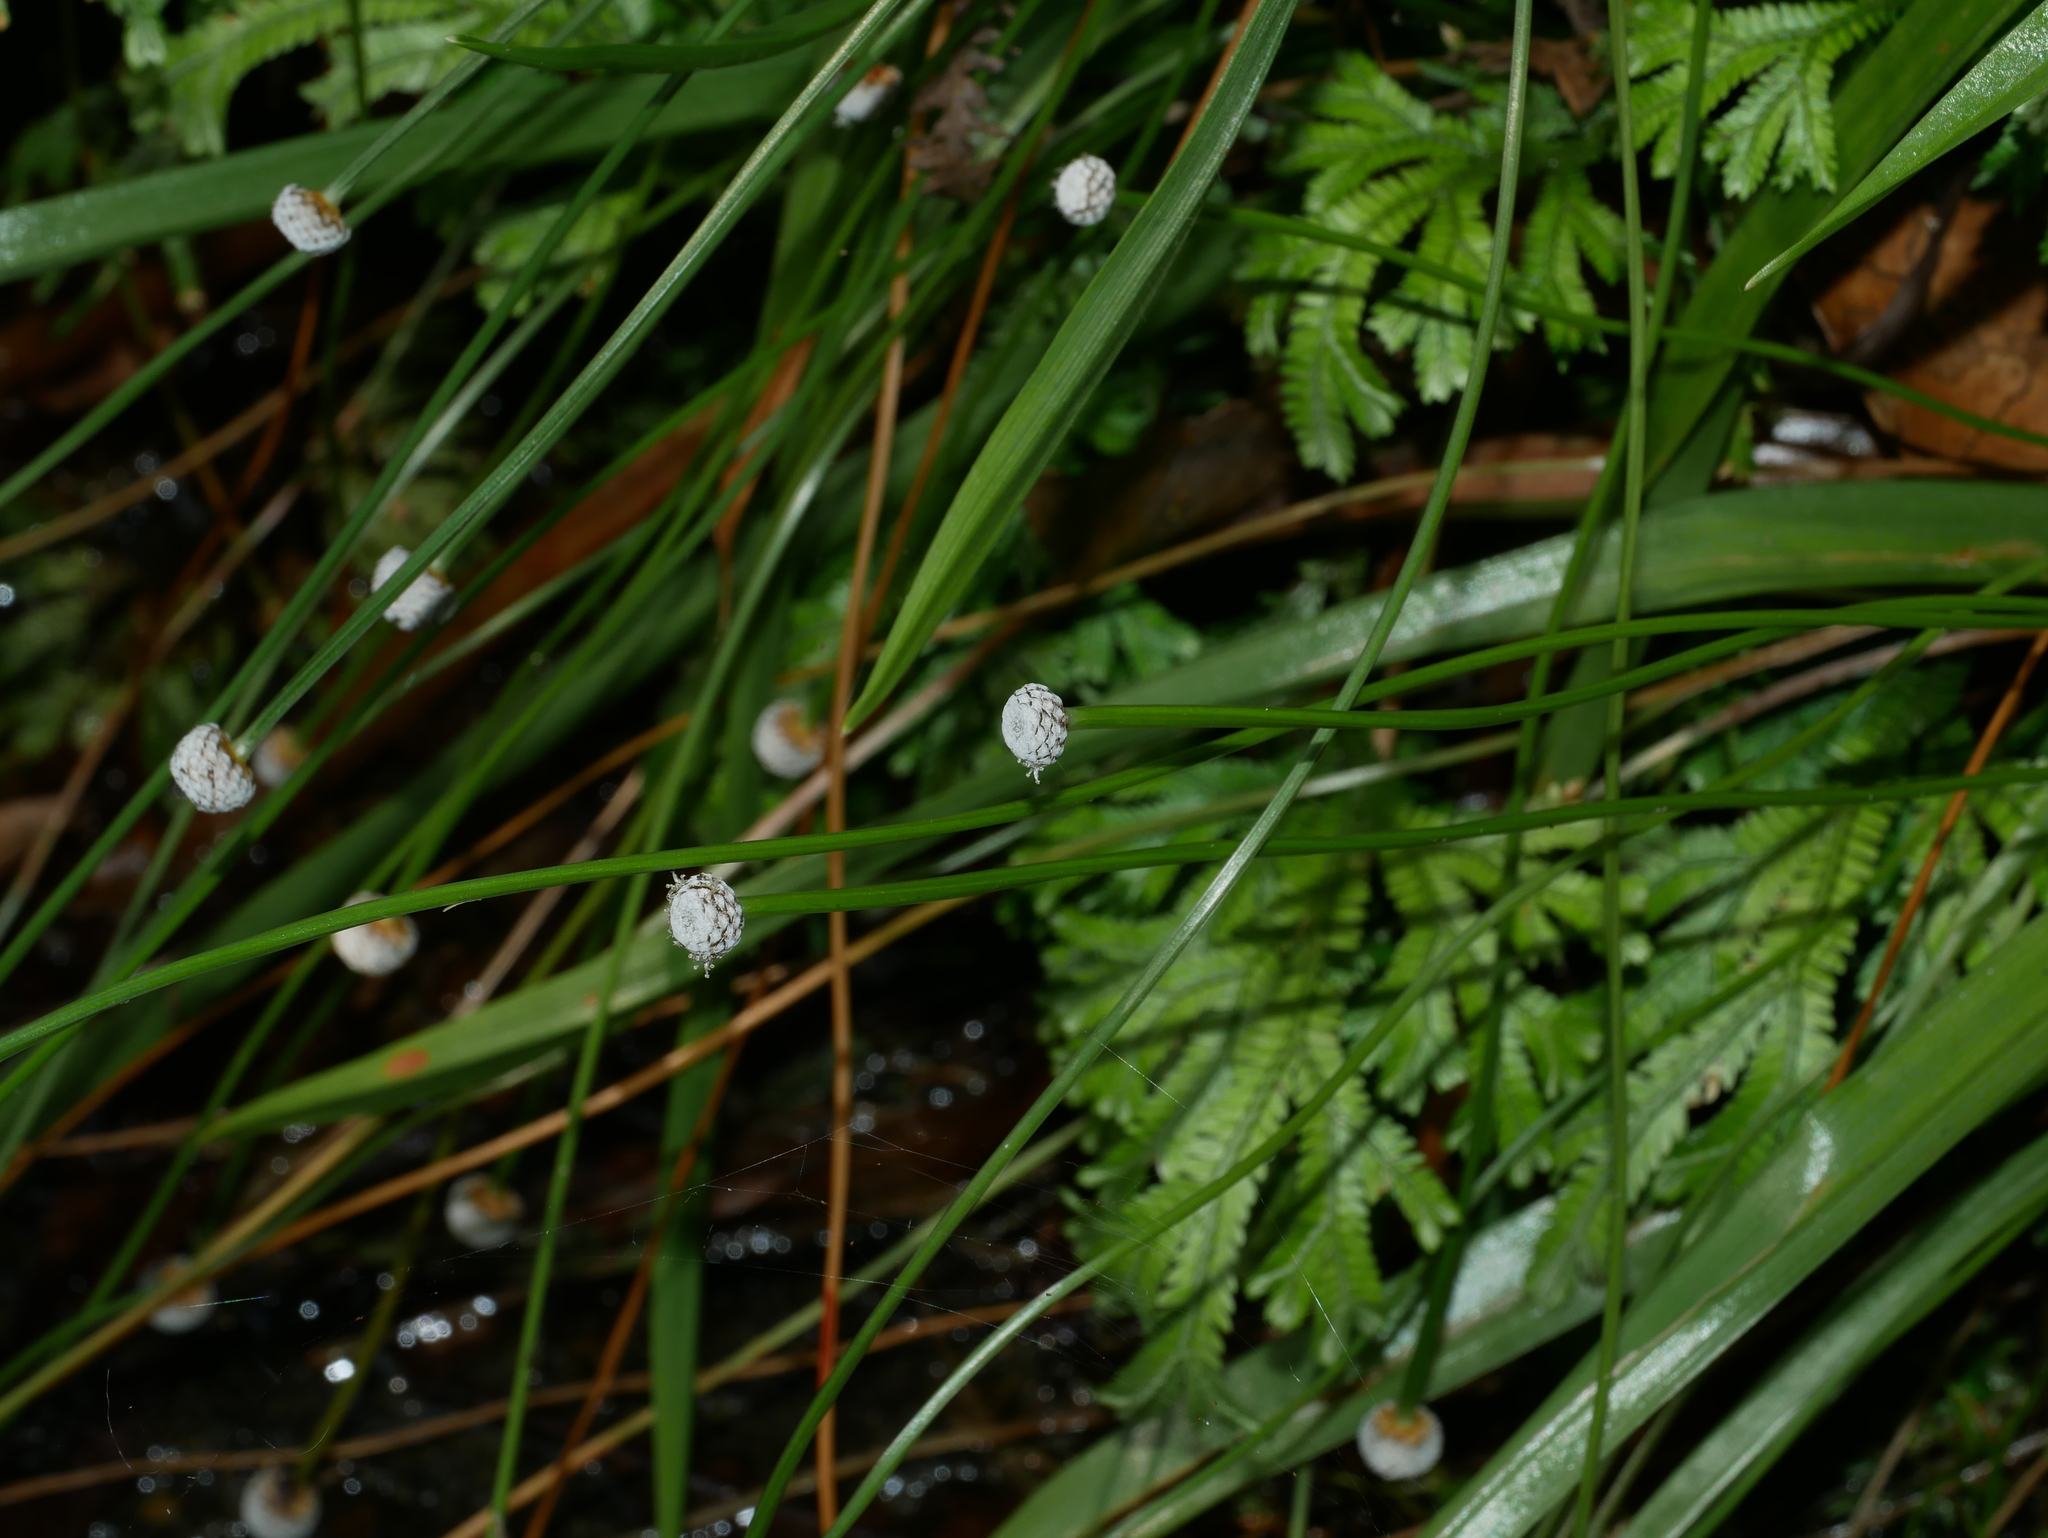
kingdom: Plantae
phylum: Tracheophyta
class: Liliopsida
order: Poales
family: Eriocaulaceae
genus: Eriocaulon
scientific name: Eriocaulon sexangulare
